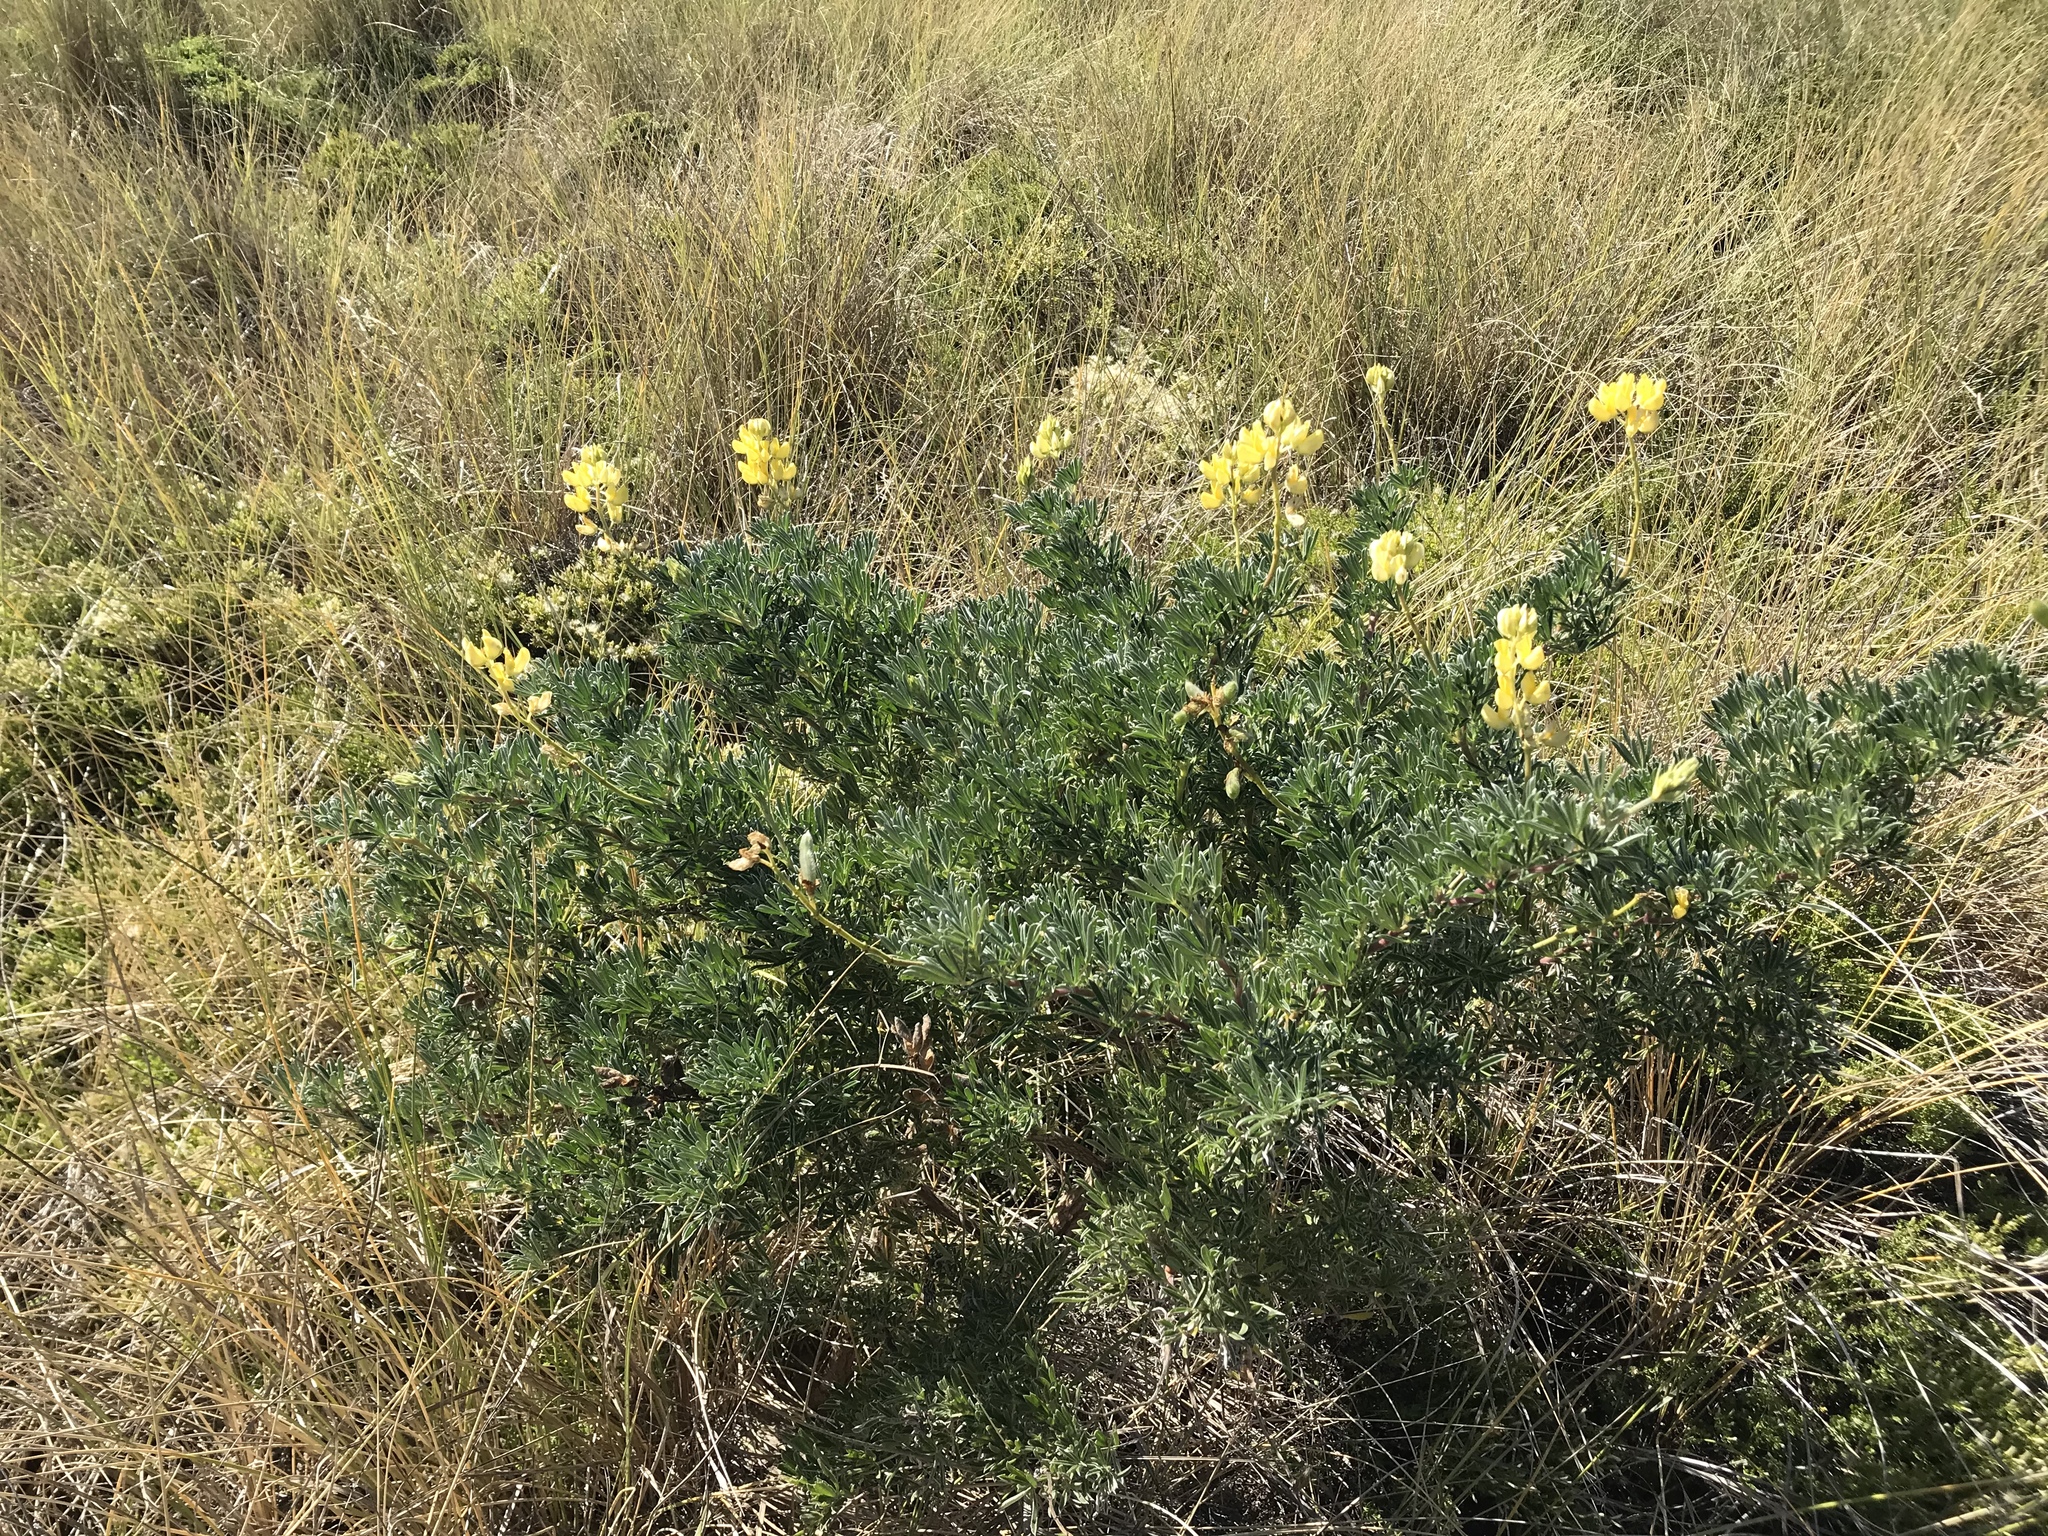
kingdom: Plantae
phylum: Tracheophyta
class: Magnoliopsida
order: Fabales
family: Fabaceae
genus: Lupinus
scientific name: Lupinus arboreus
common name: Yellow bush lupine
